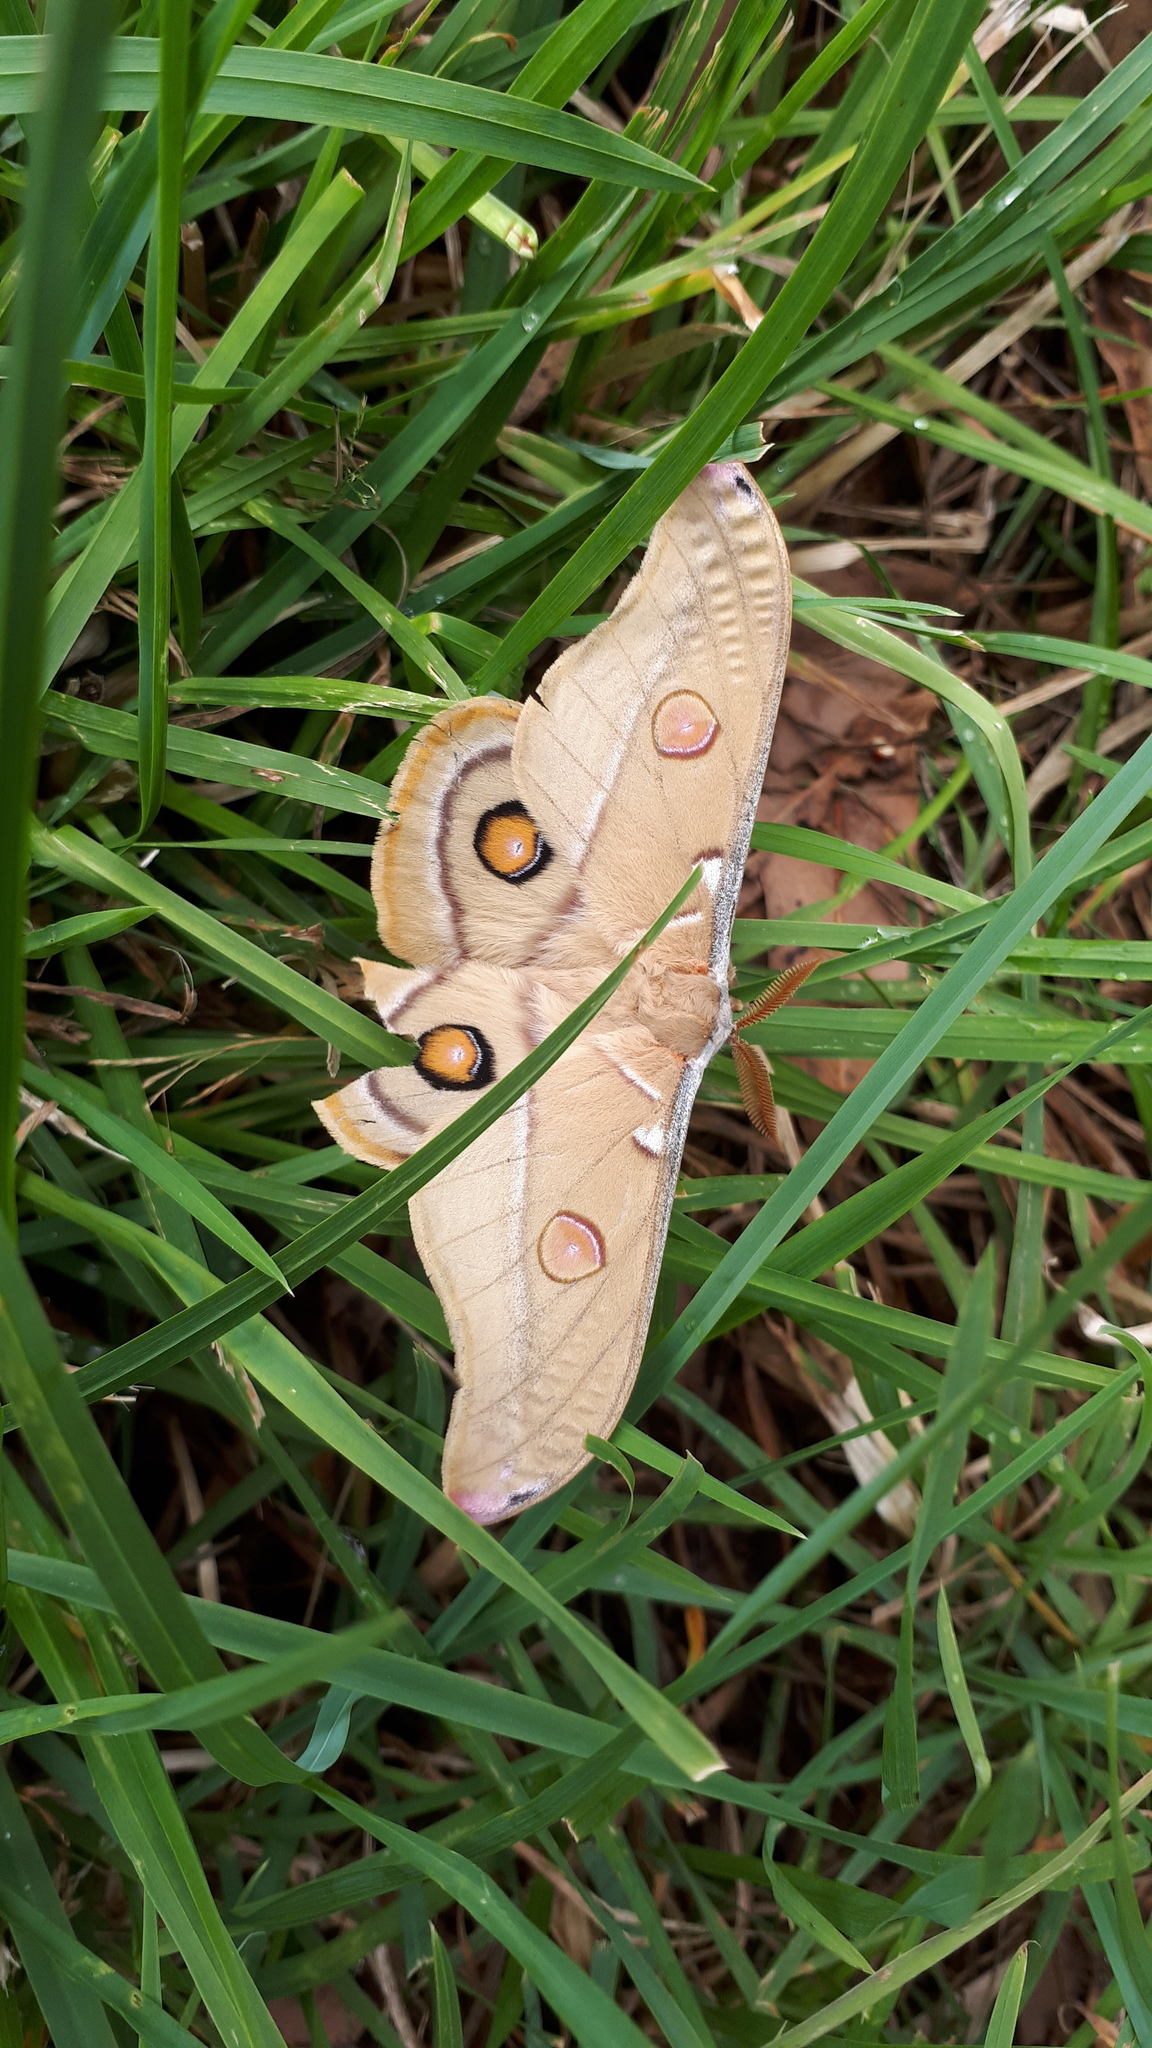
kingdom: Animalia
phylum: Arthropoda
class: Insecta
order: Lepidoptera
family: Saturniidae
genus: Opodiphthera
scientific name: Opodiphthera
